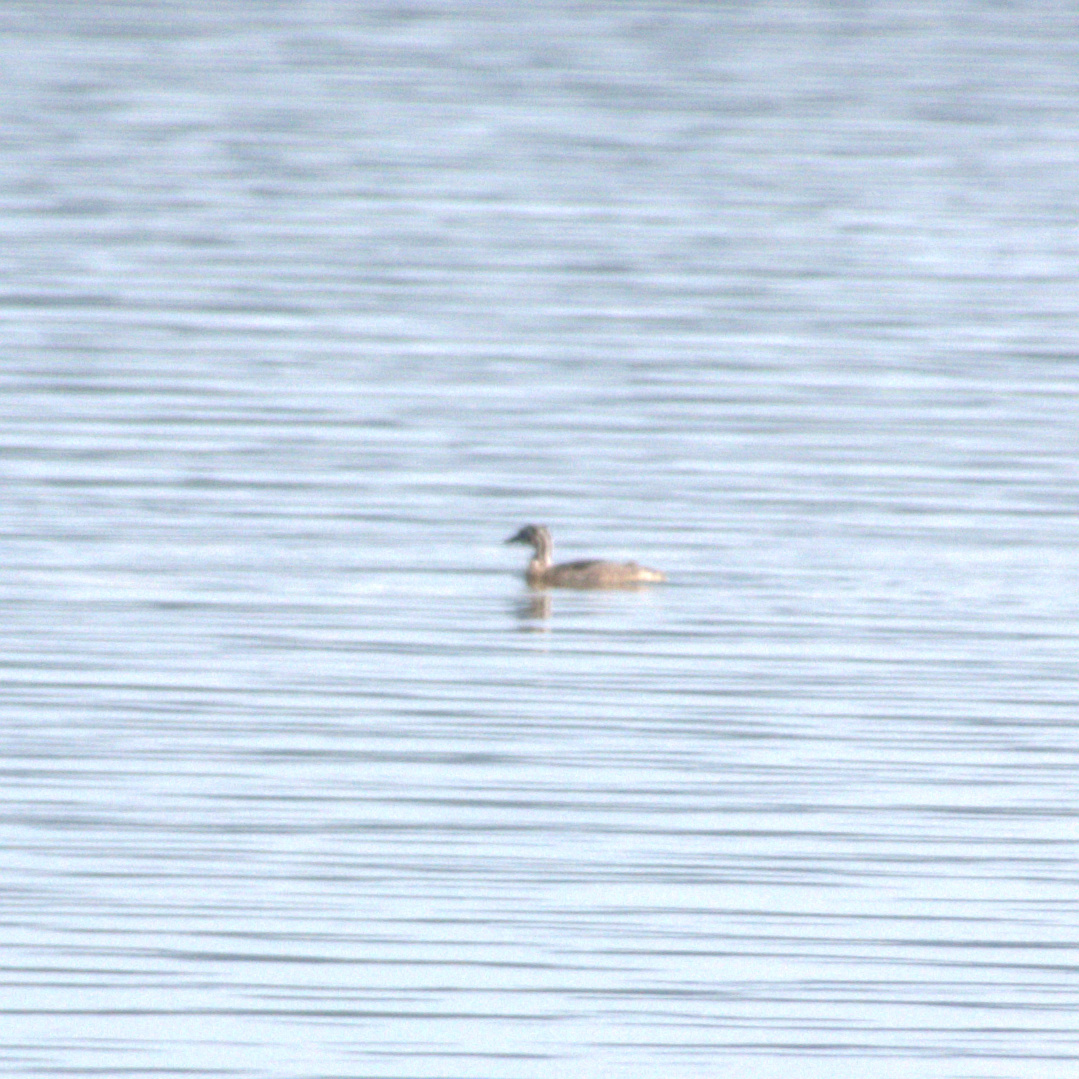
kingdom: Animalia
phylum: Chordata
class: Aves
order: Podicipediformes
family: Podicipedidae
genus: Podiceps
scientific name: Podiceps cristatus
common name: Great crested grebe
